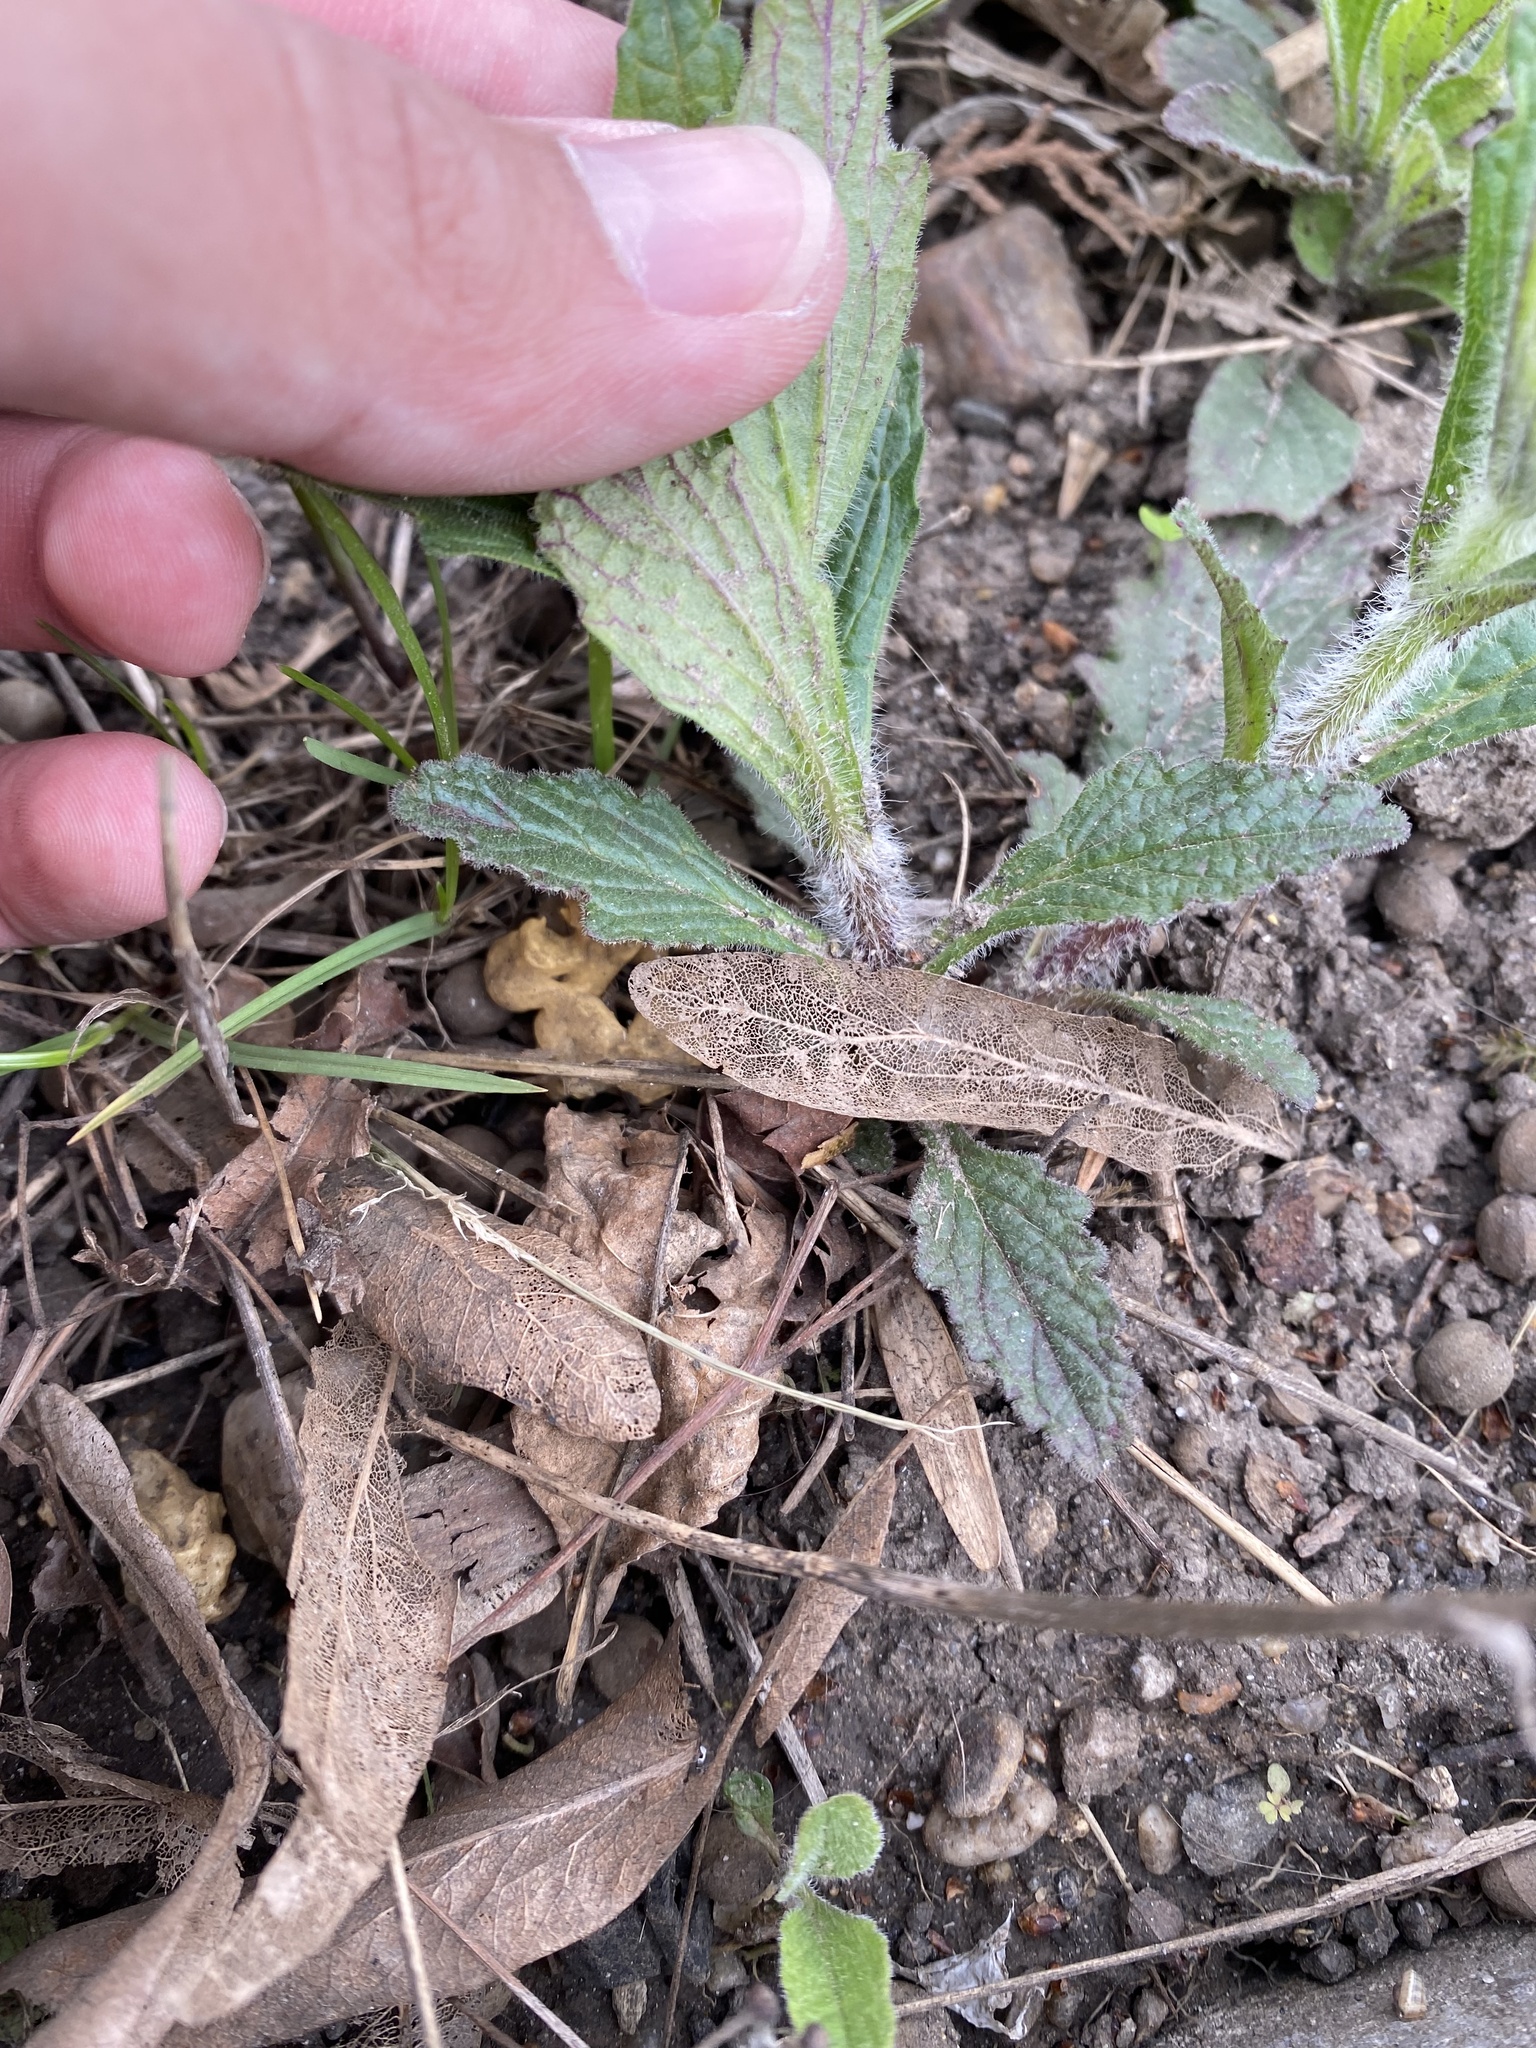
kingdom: Plantae
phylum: Tracheophyta
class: Magnoliopsida
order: Lamiales
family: Lamiaceae
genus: Ajuga
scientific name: Ajuga genevensis
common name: Blue bugle
